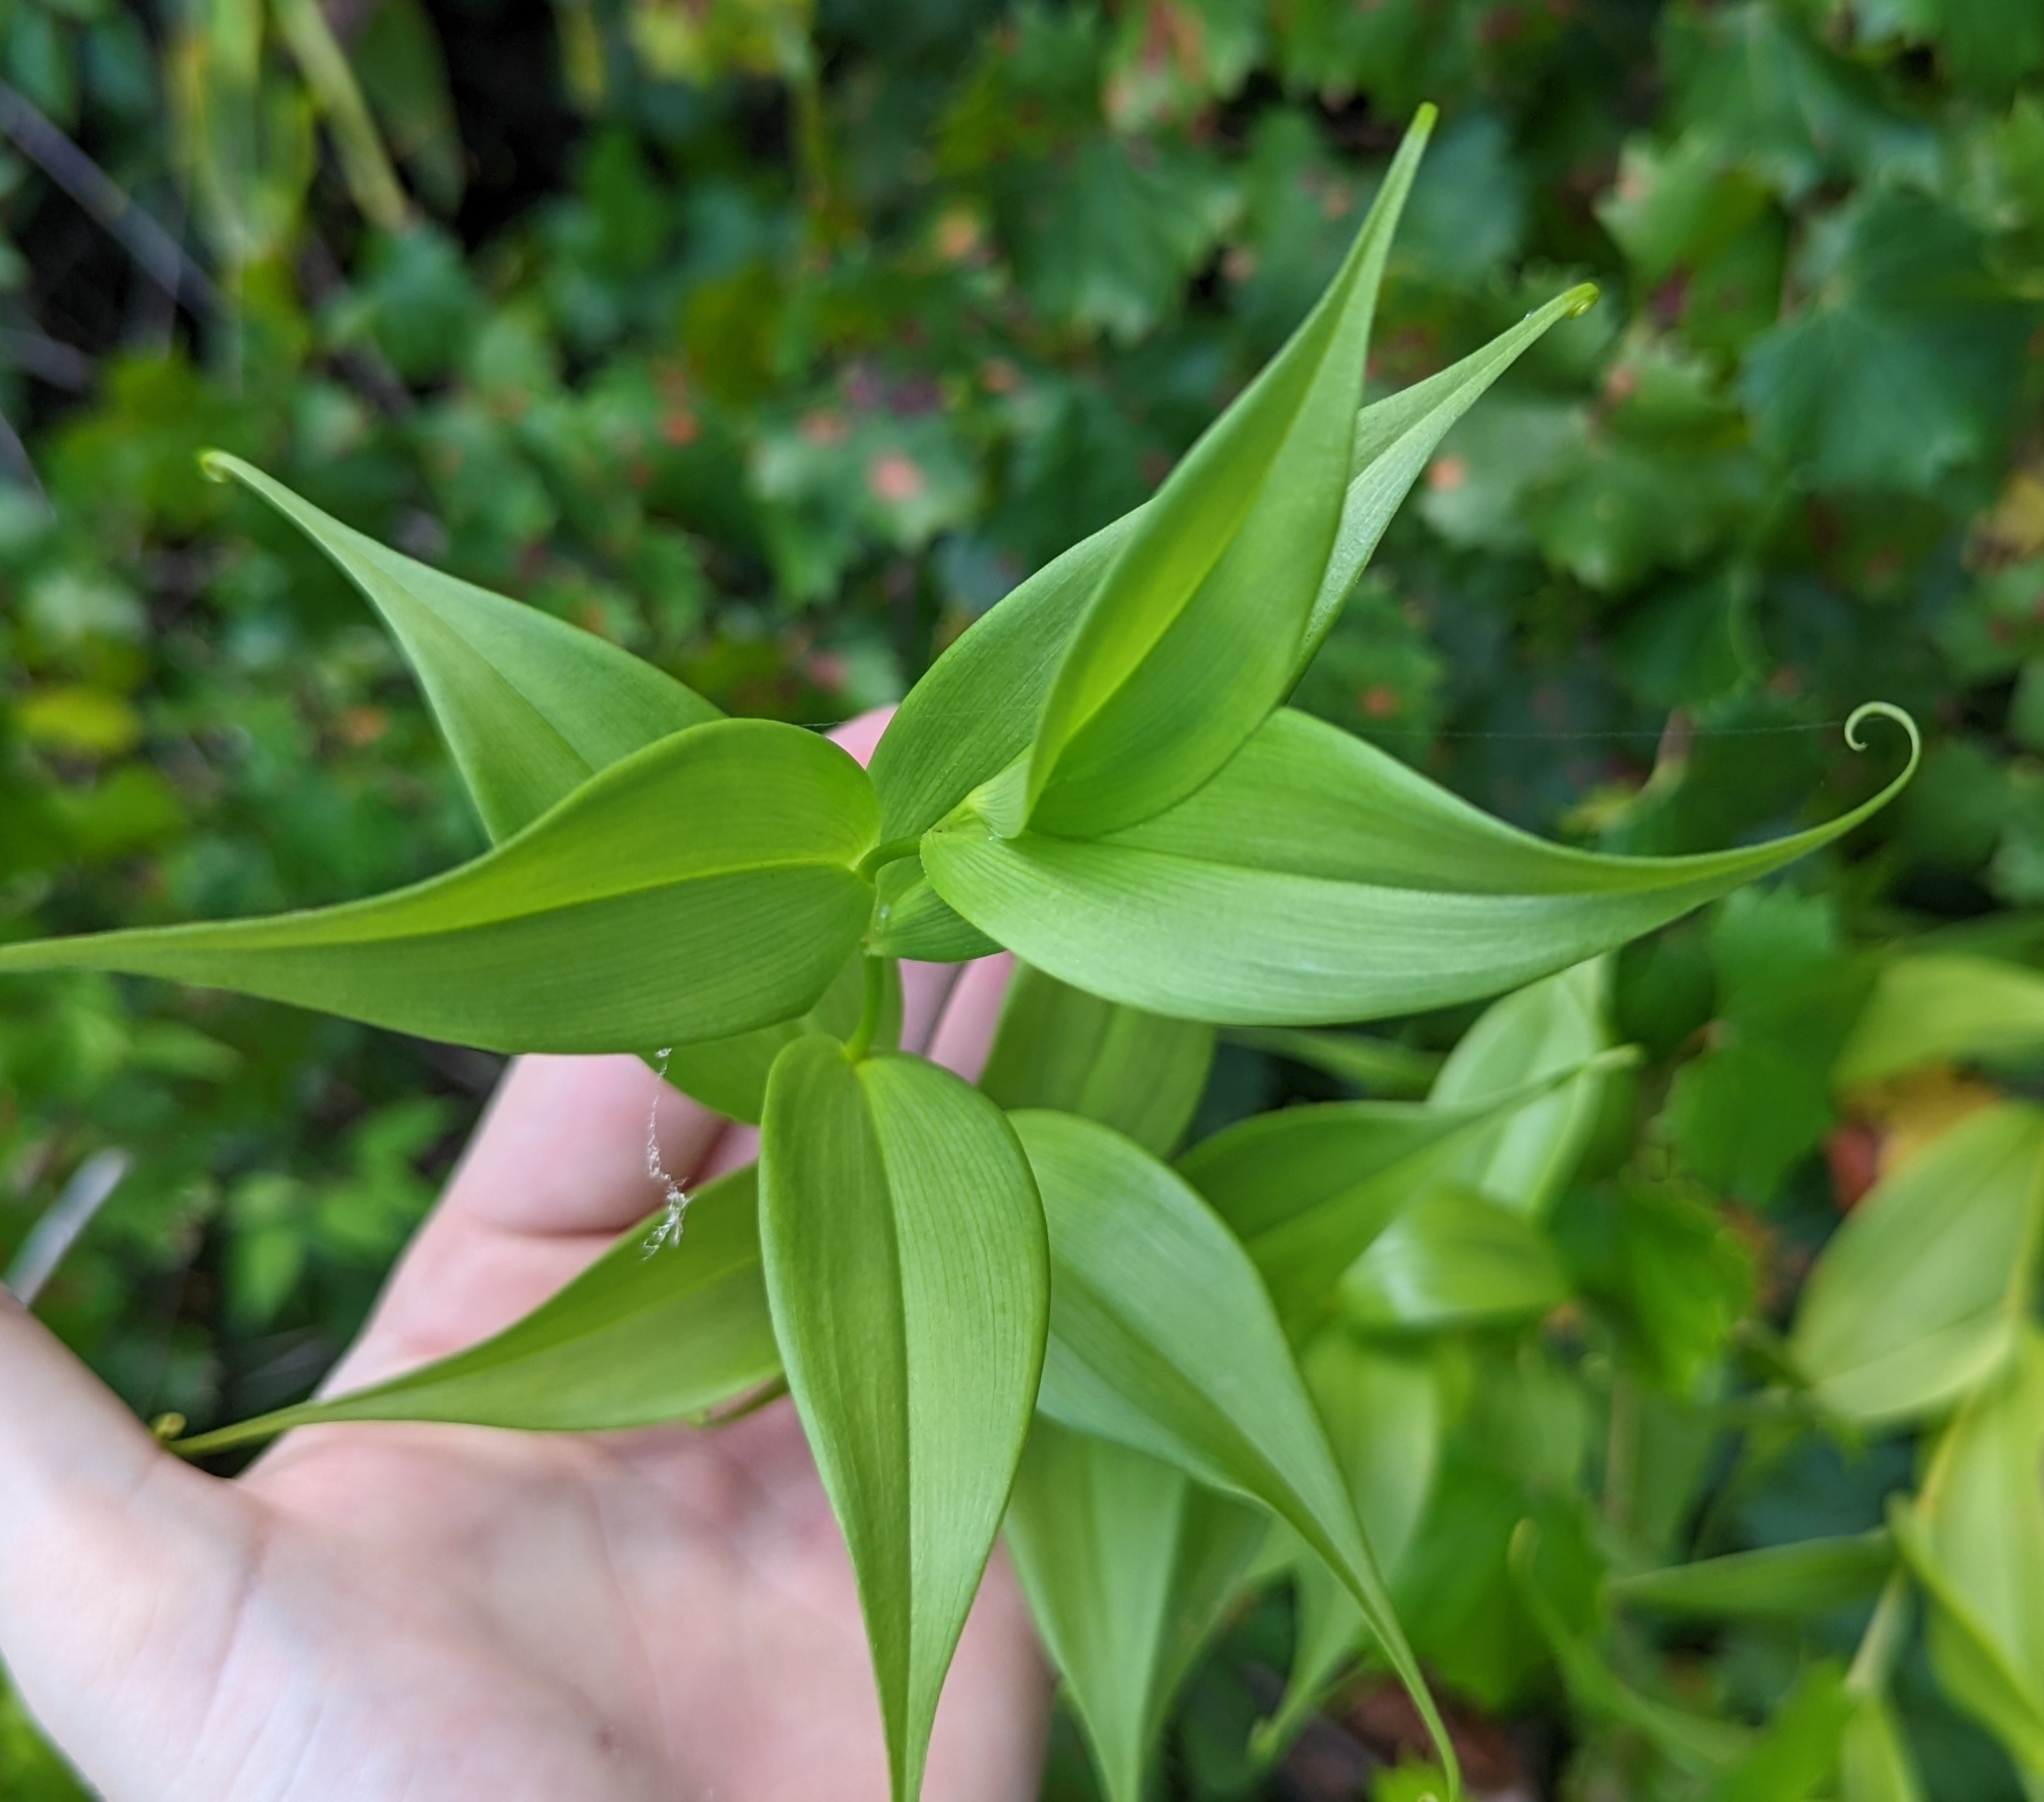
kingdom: Plantae
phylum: Tracheophyta
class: Liliopsida
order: Liliales
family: Colchicaceae
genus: Gloriosa
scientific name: Gloriosa superba
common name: Flame lily
